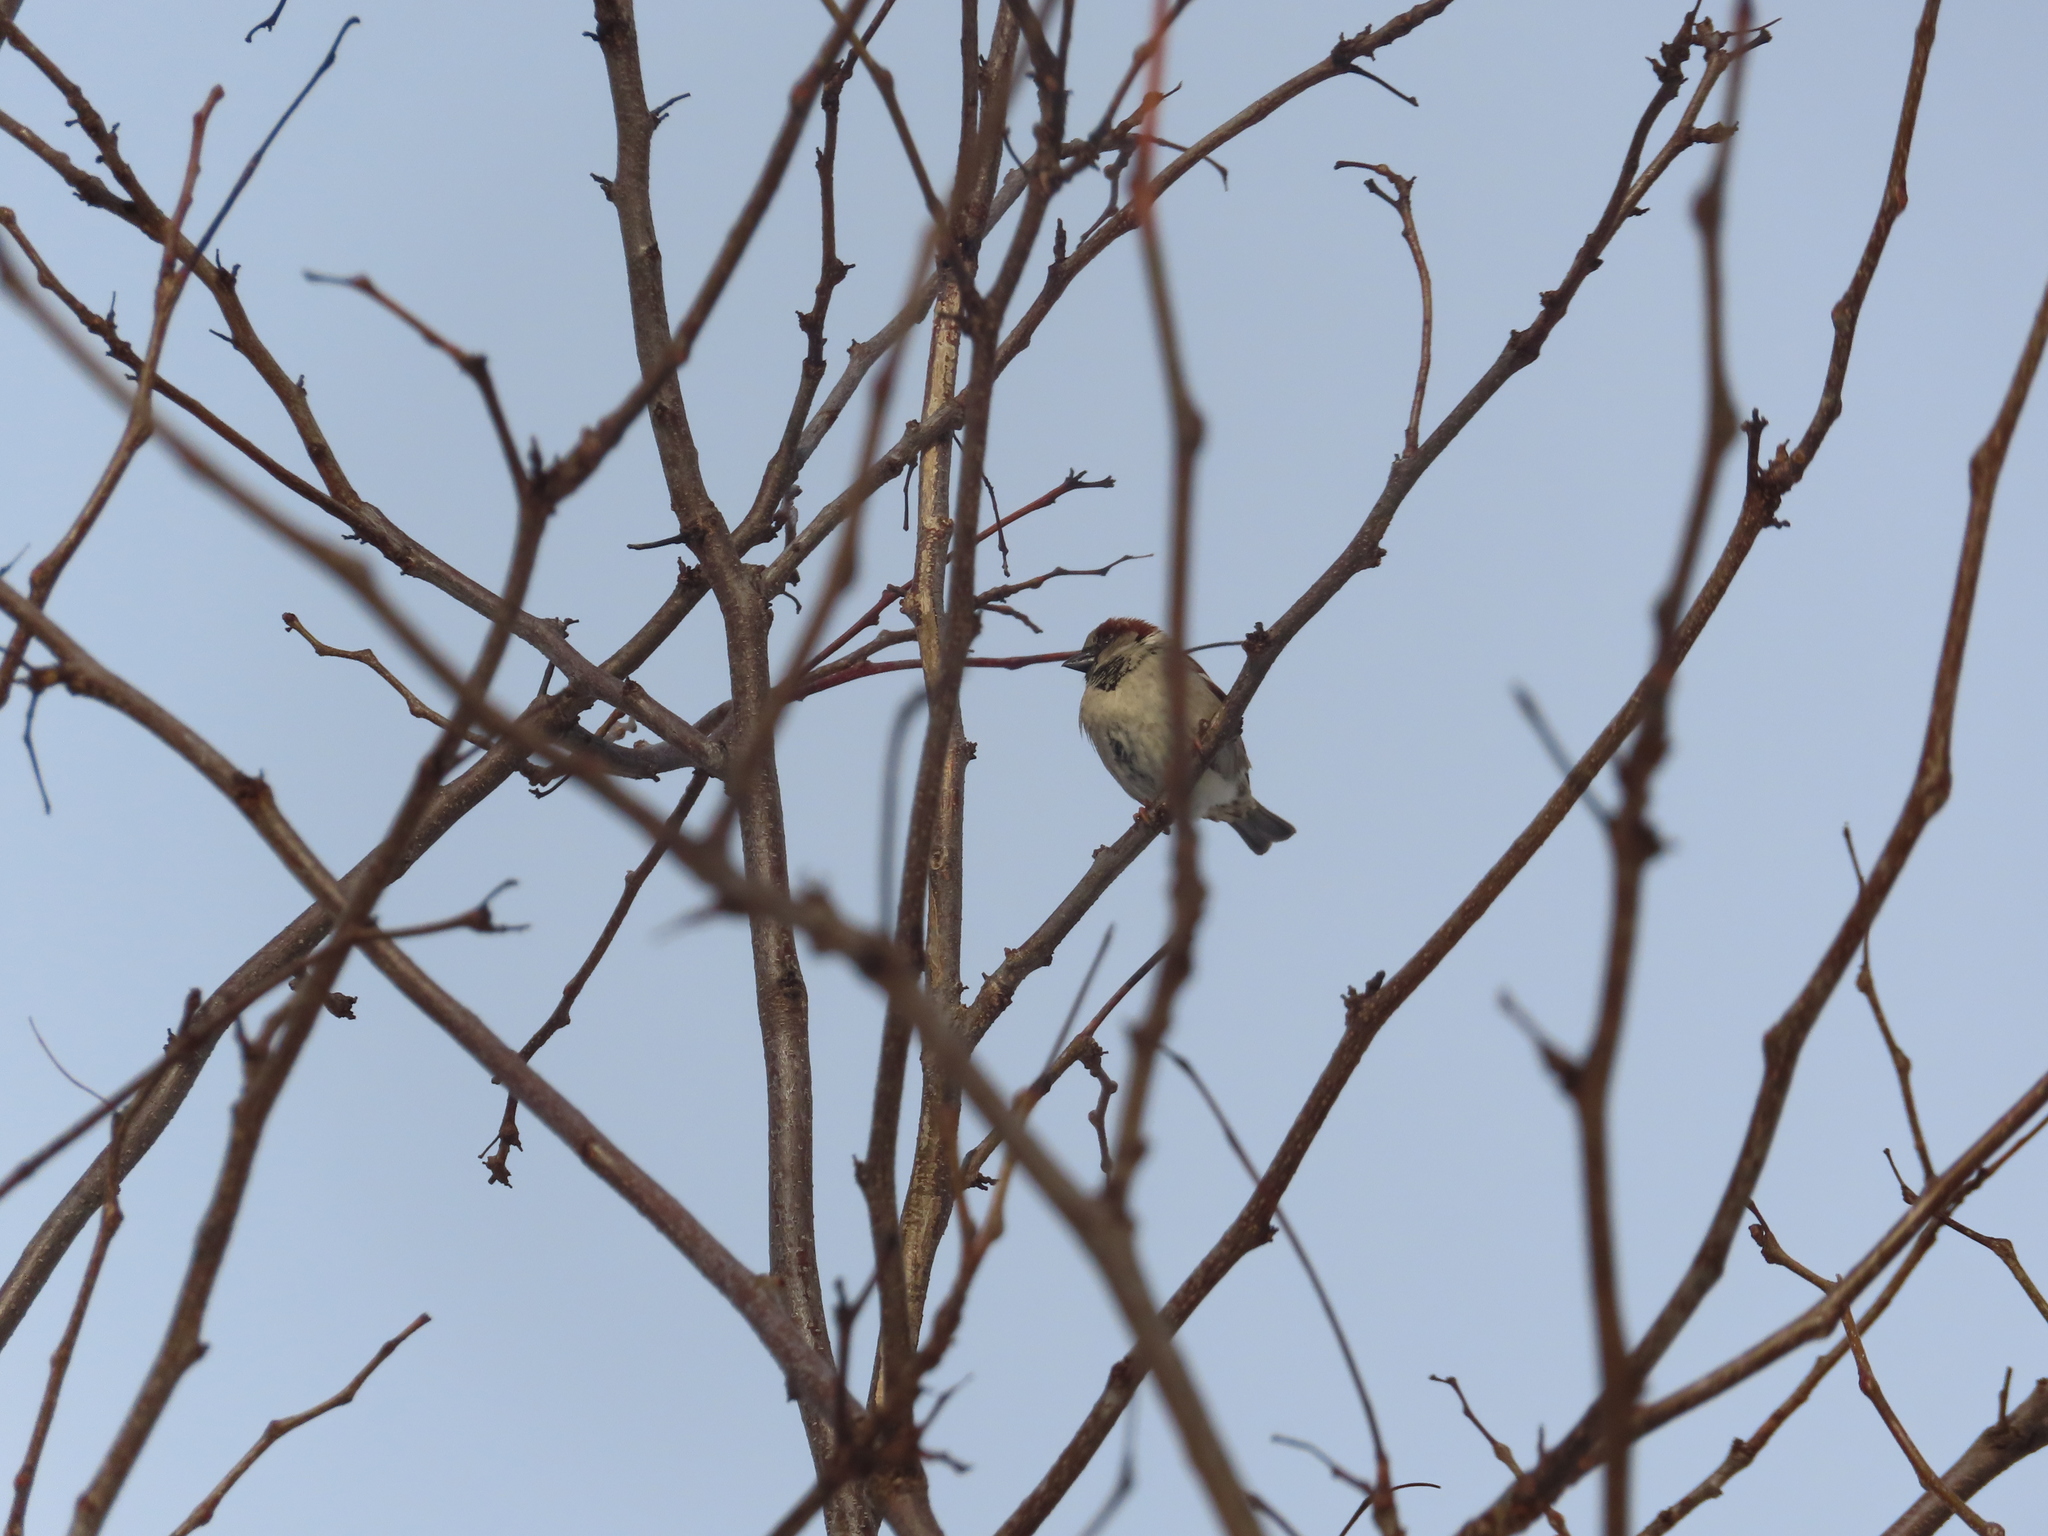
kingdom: Animalia
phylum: Chordata
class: Aves
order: Passeriformes
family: Passeridae
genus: Passer
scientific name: Passer domesticus
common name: House sparrow
